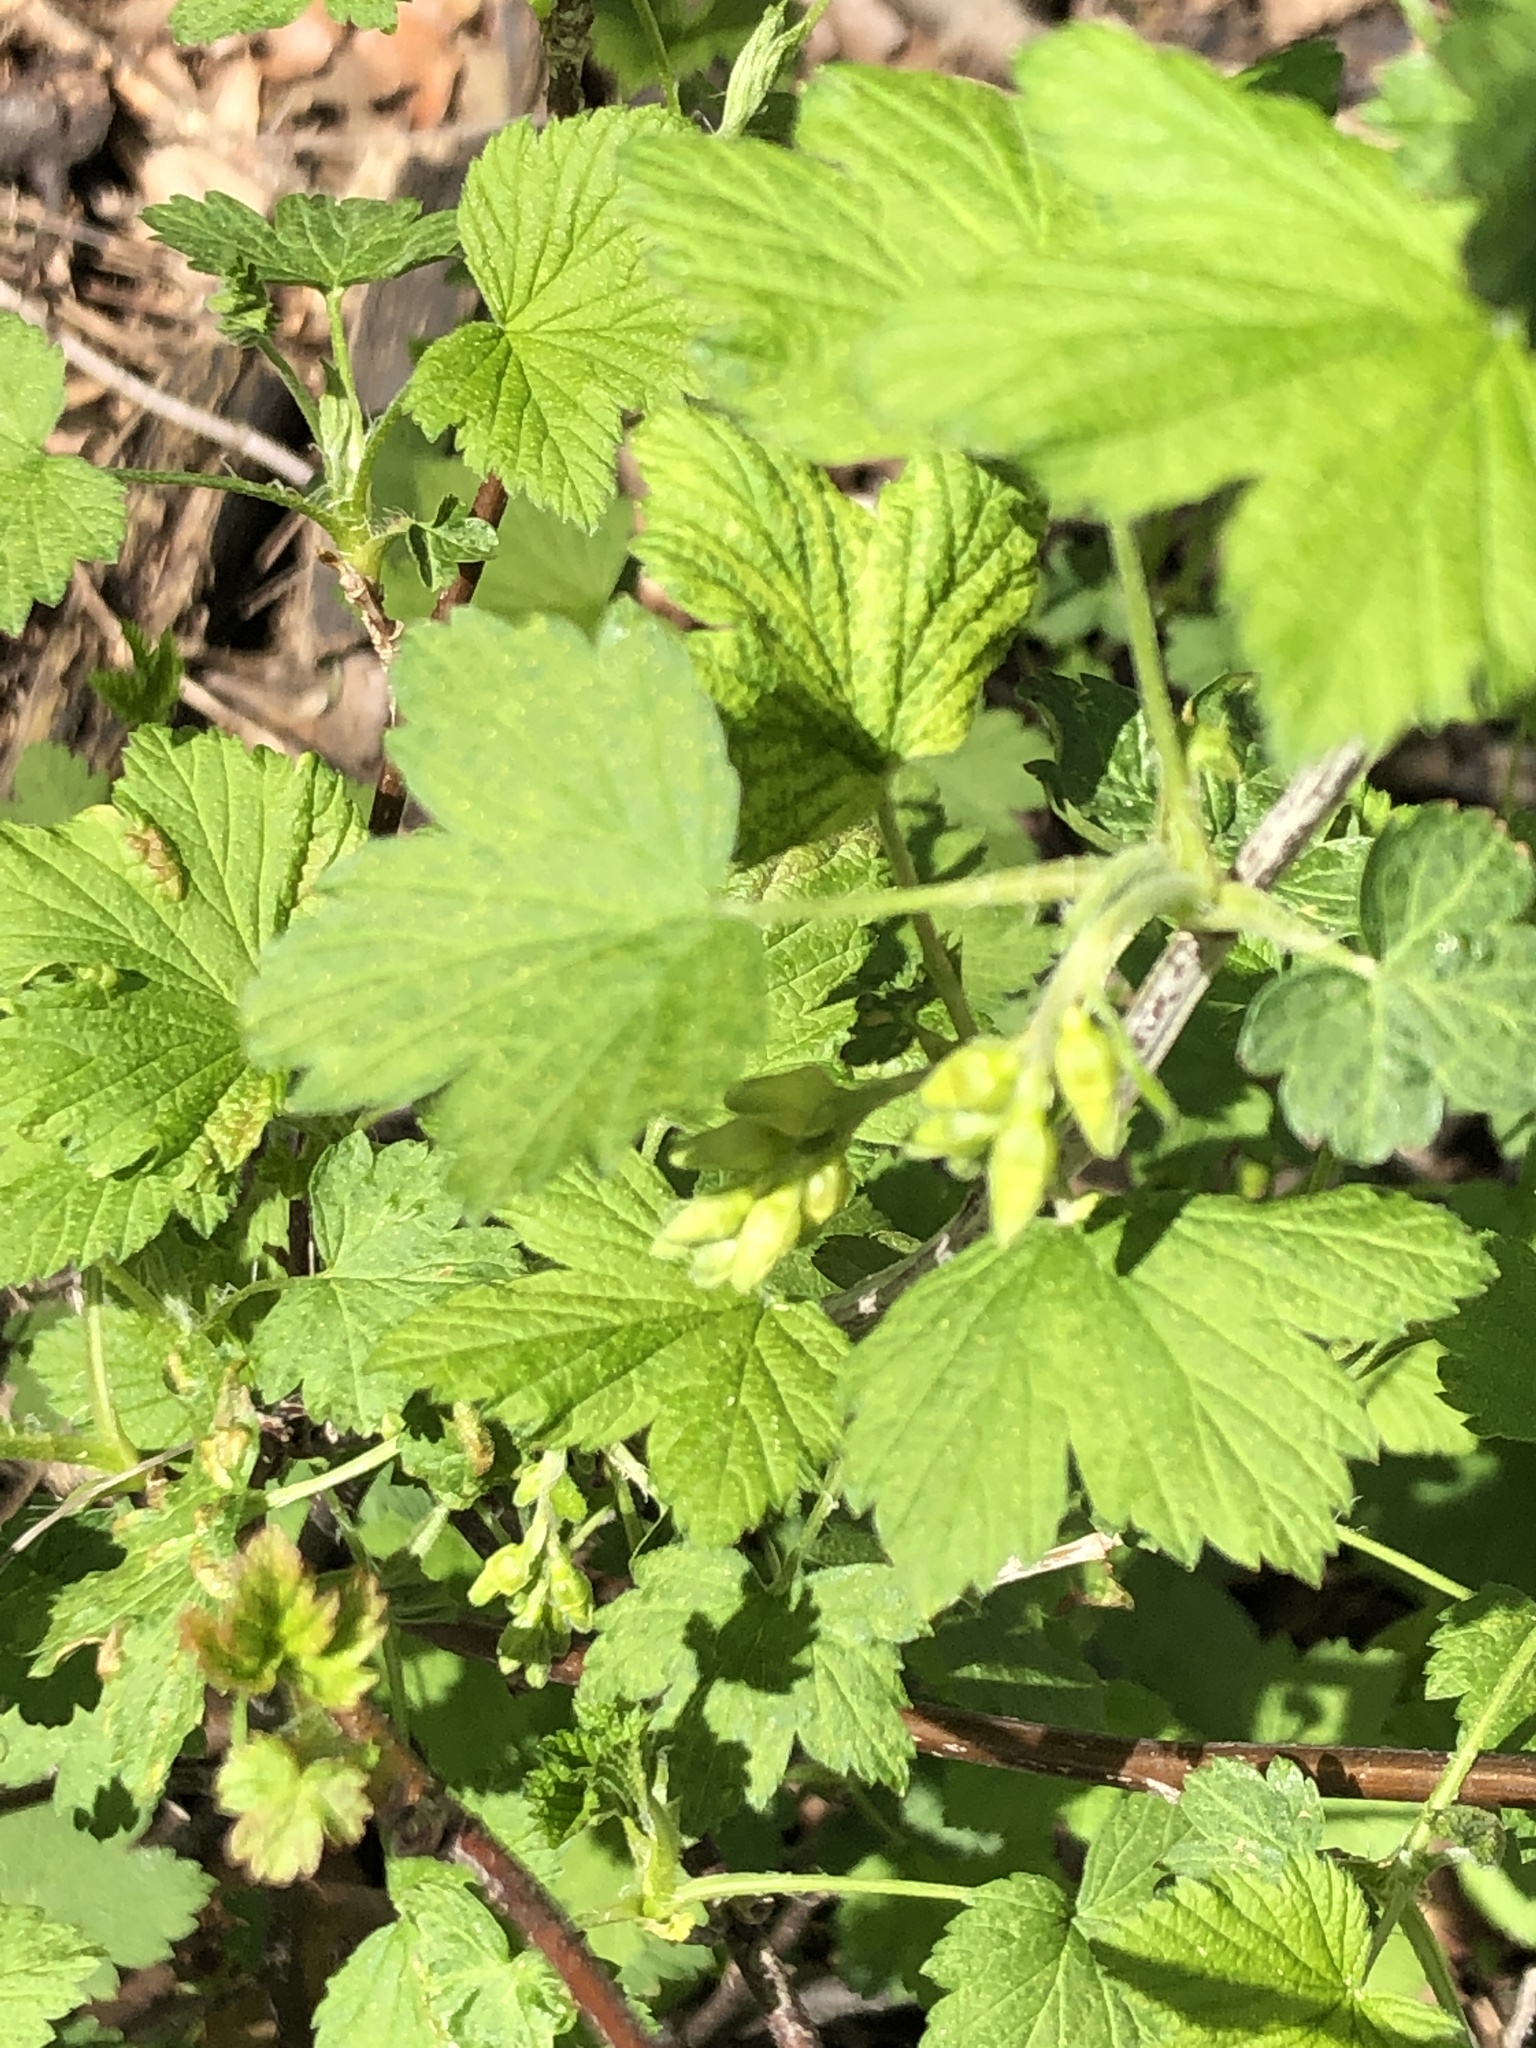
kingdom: Plantae
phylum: Tracheophyta
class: Magnoliopsida
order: Saxifragales
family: Grossulariaceae
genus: Ribes
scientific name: Ribes americanum
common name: American black currant
